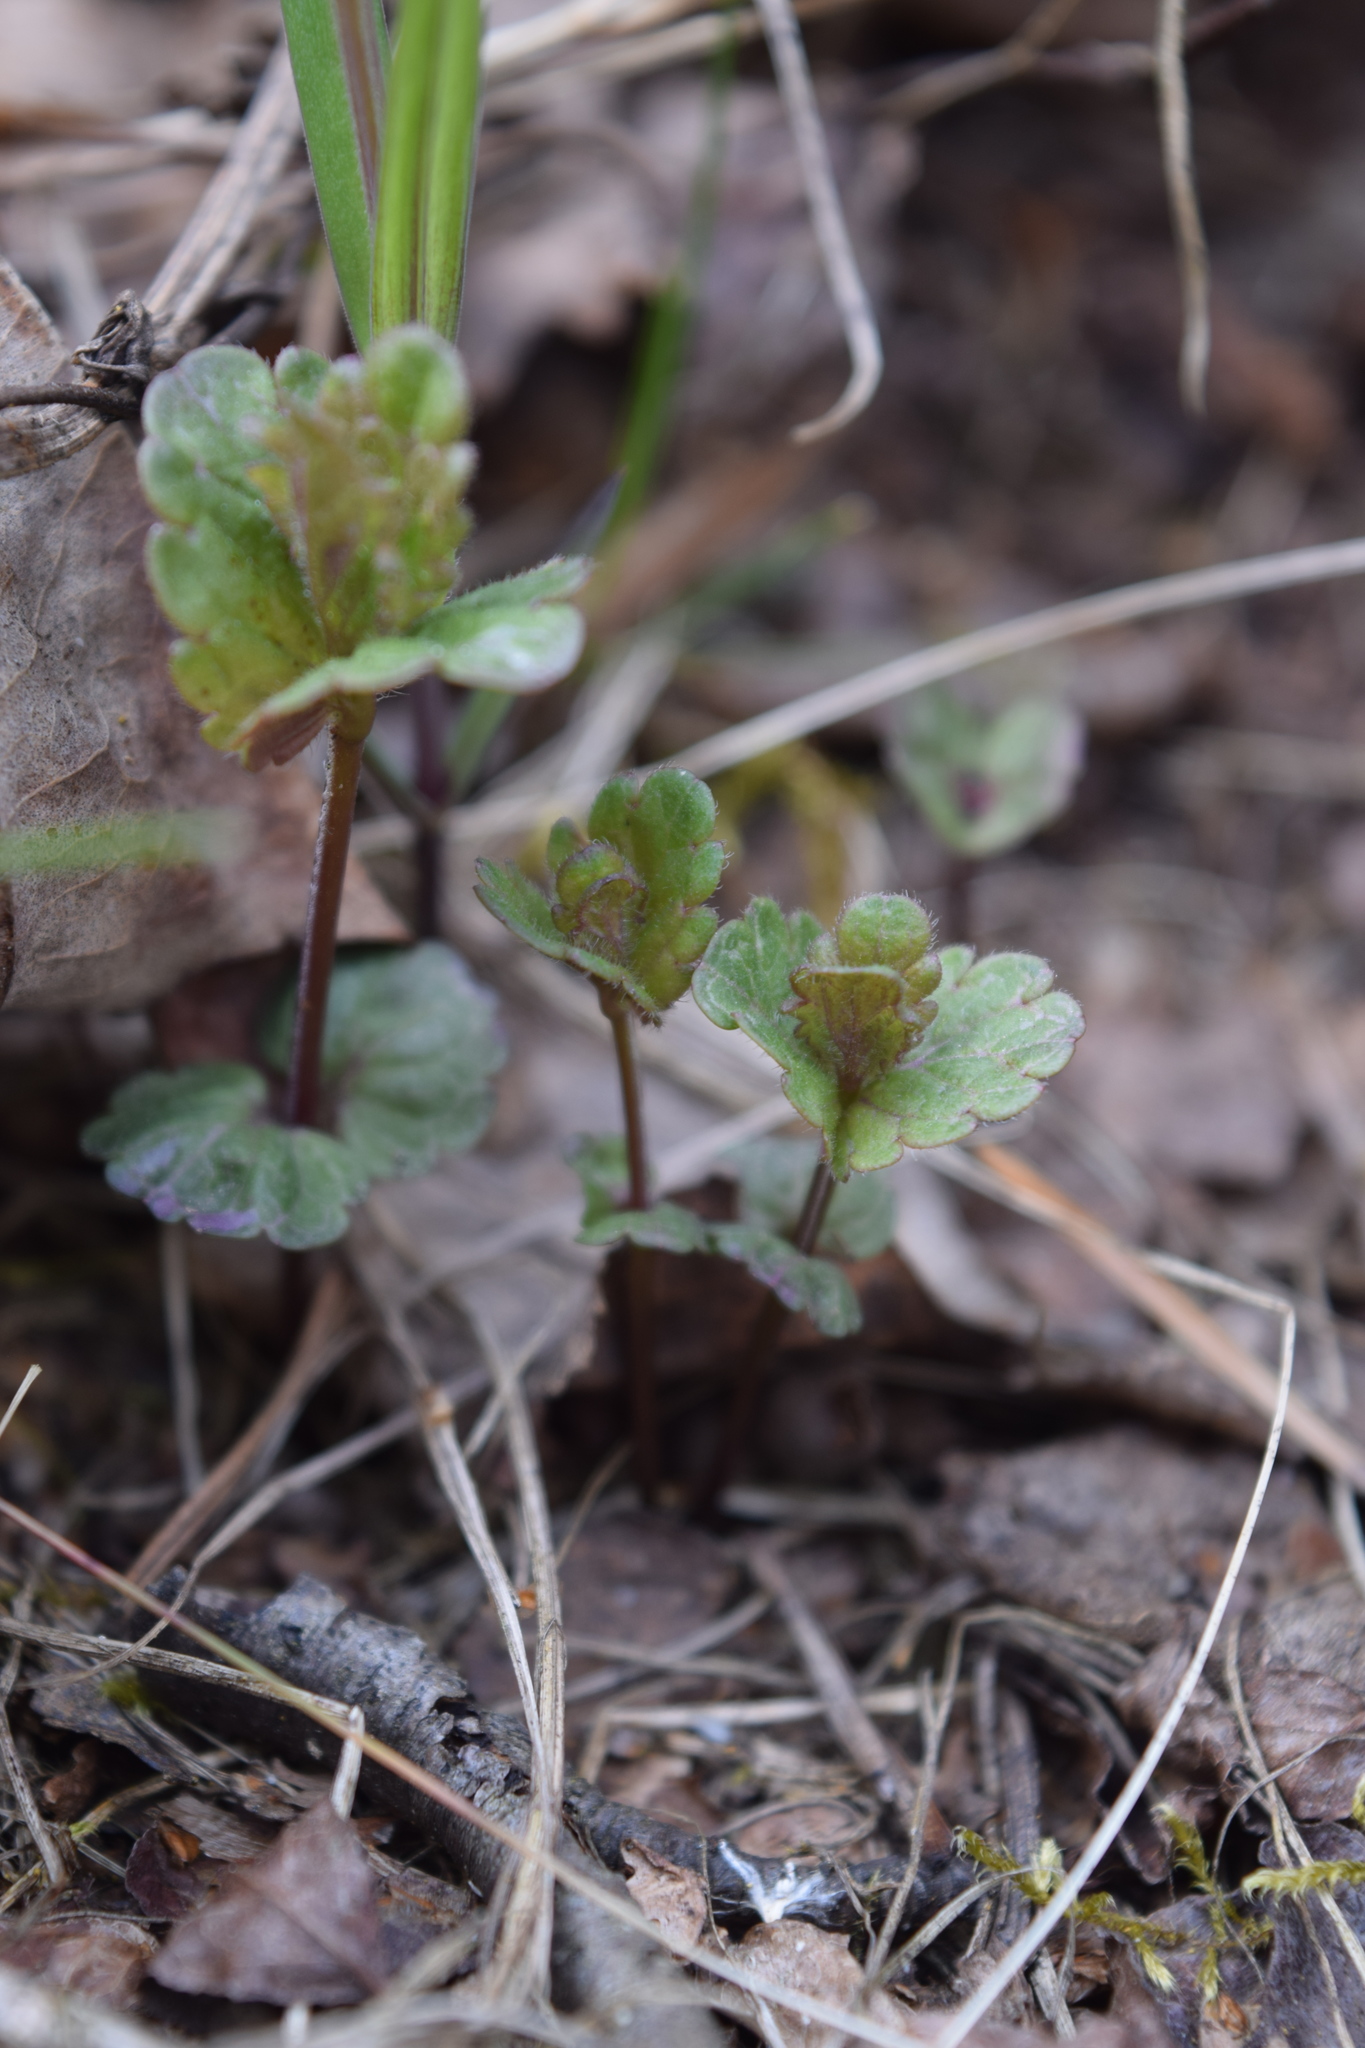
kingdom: Plantae
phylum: Tracheophyta
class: Magnoliopsida
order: Lamiales
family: Plantaginaceae
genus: Veronica
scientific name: Veronica chamaedrys
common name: Germander speedwell
